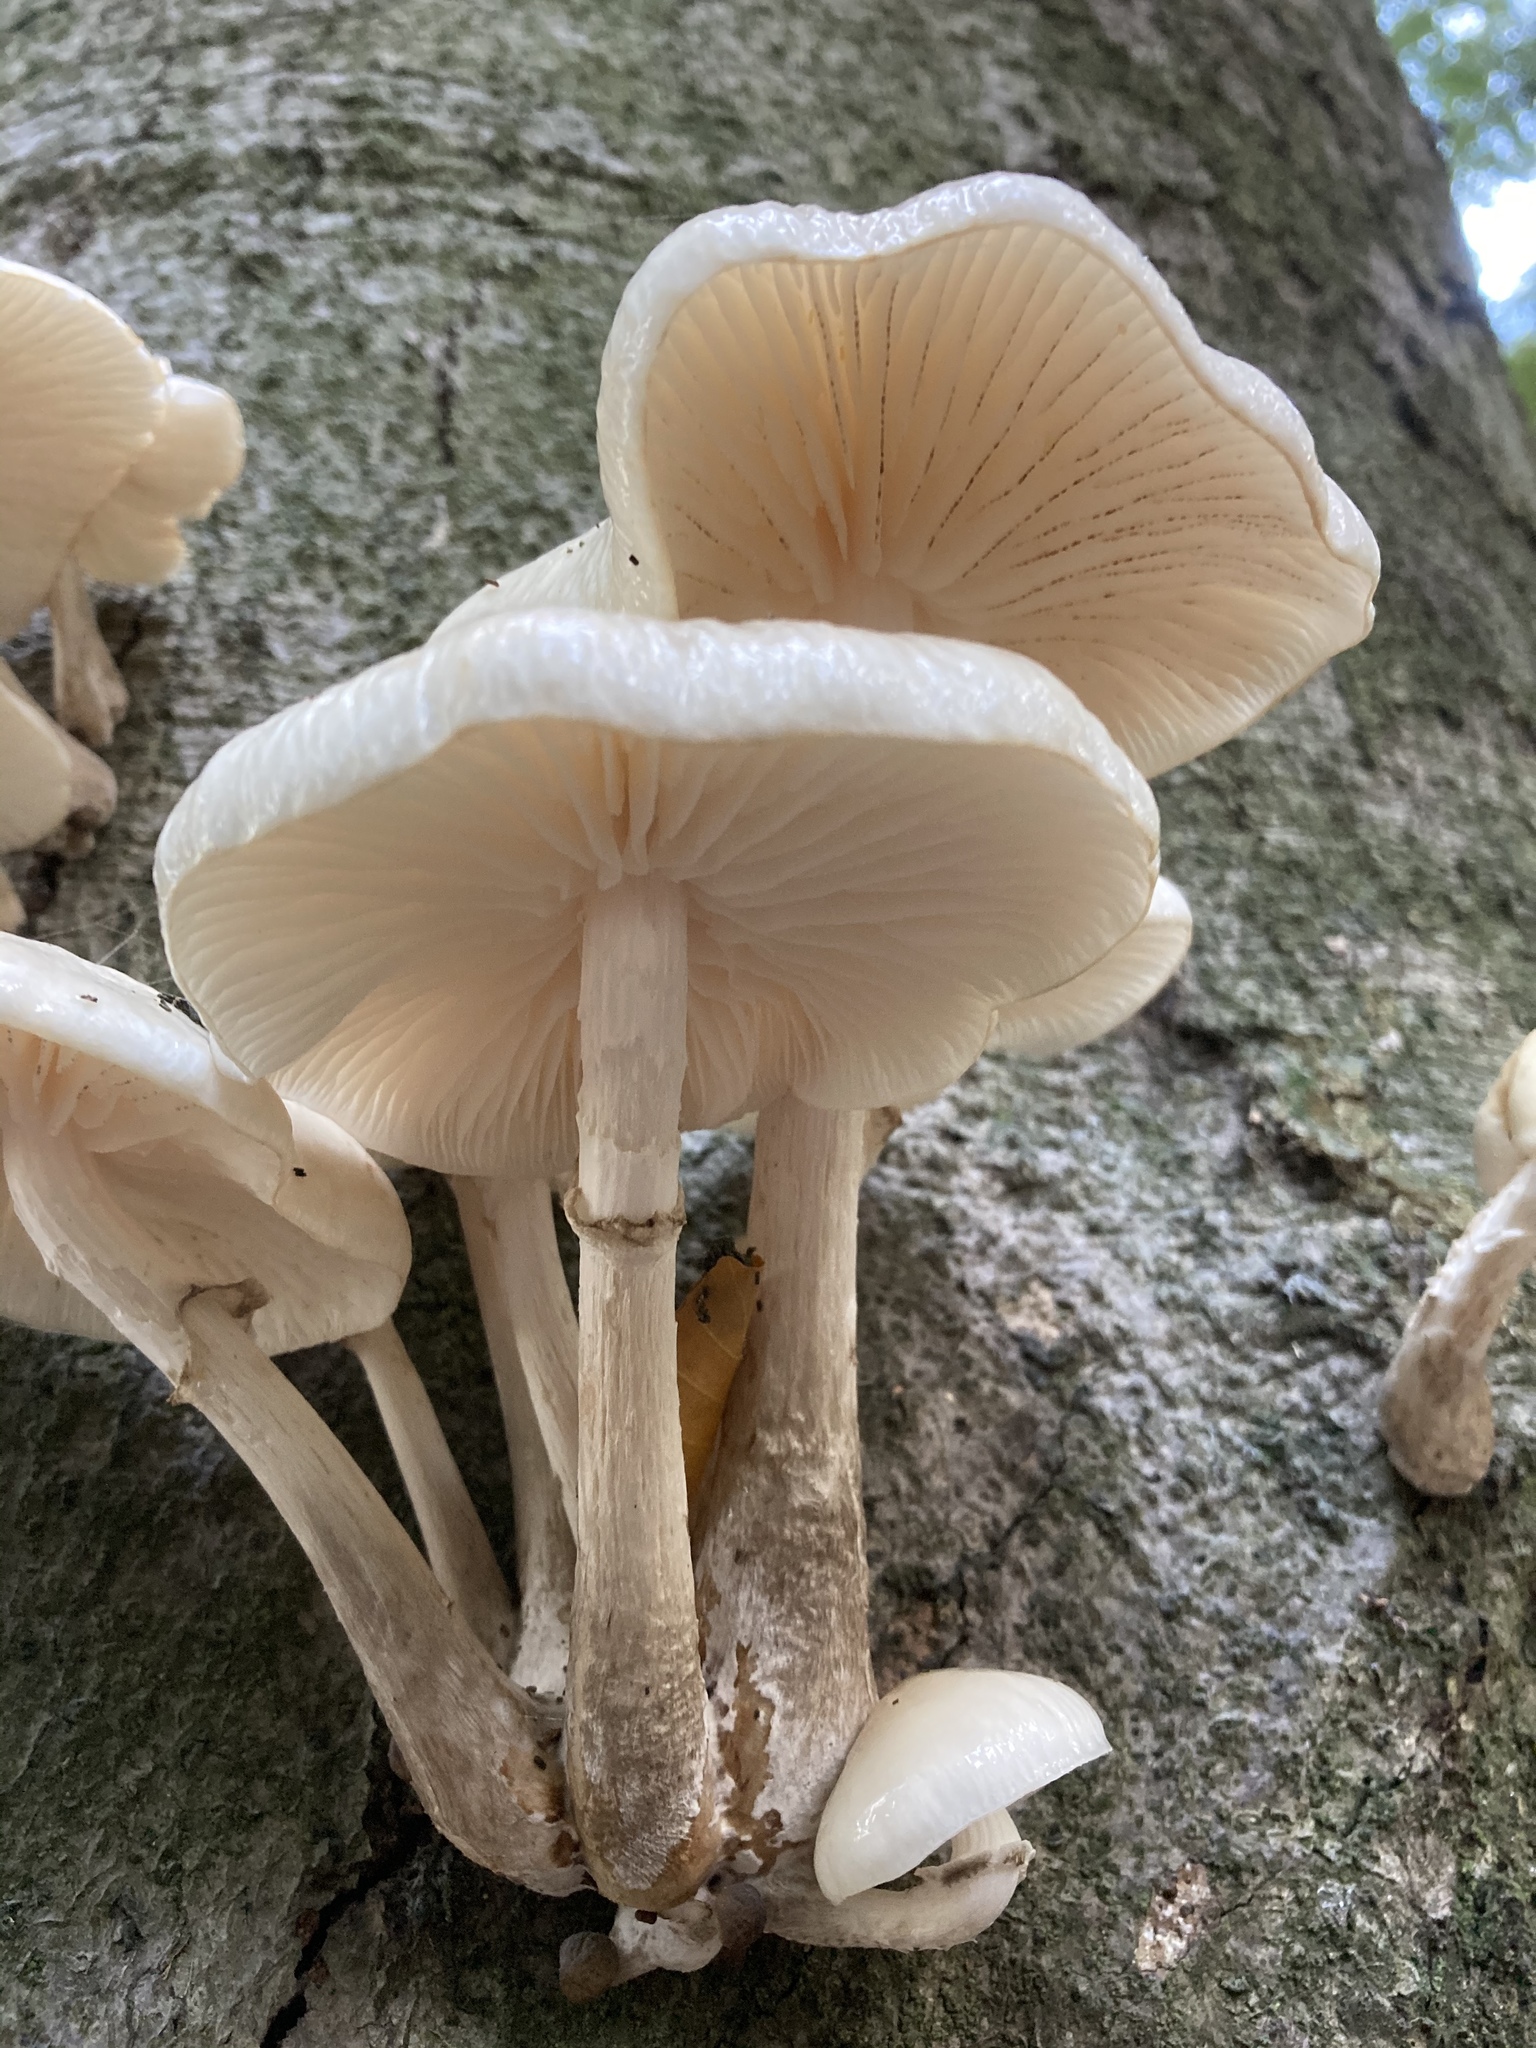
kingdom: Fungi
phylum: Basidiomycota
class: Agaricomycetes
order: Agaricales
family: Physalacriaceae
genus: Mucidula
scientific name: Mucidula mucida
